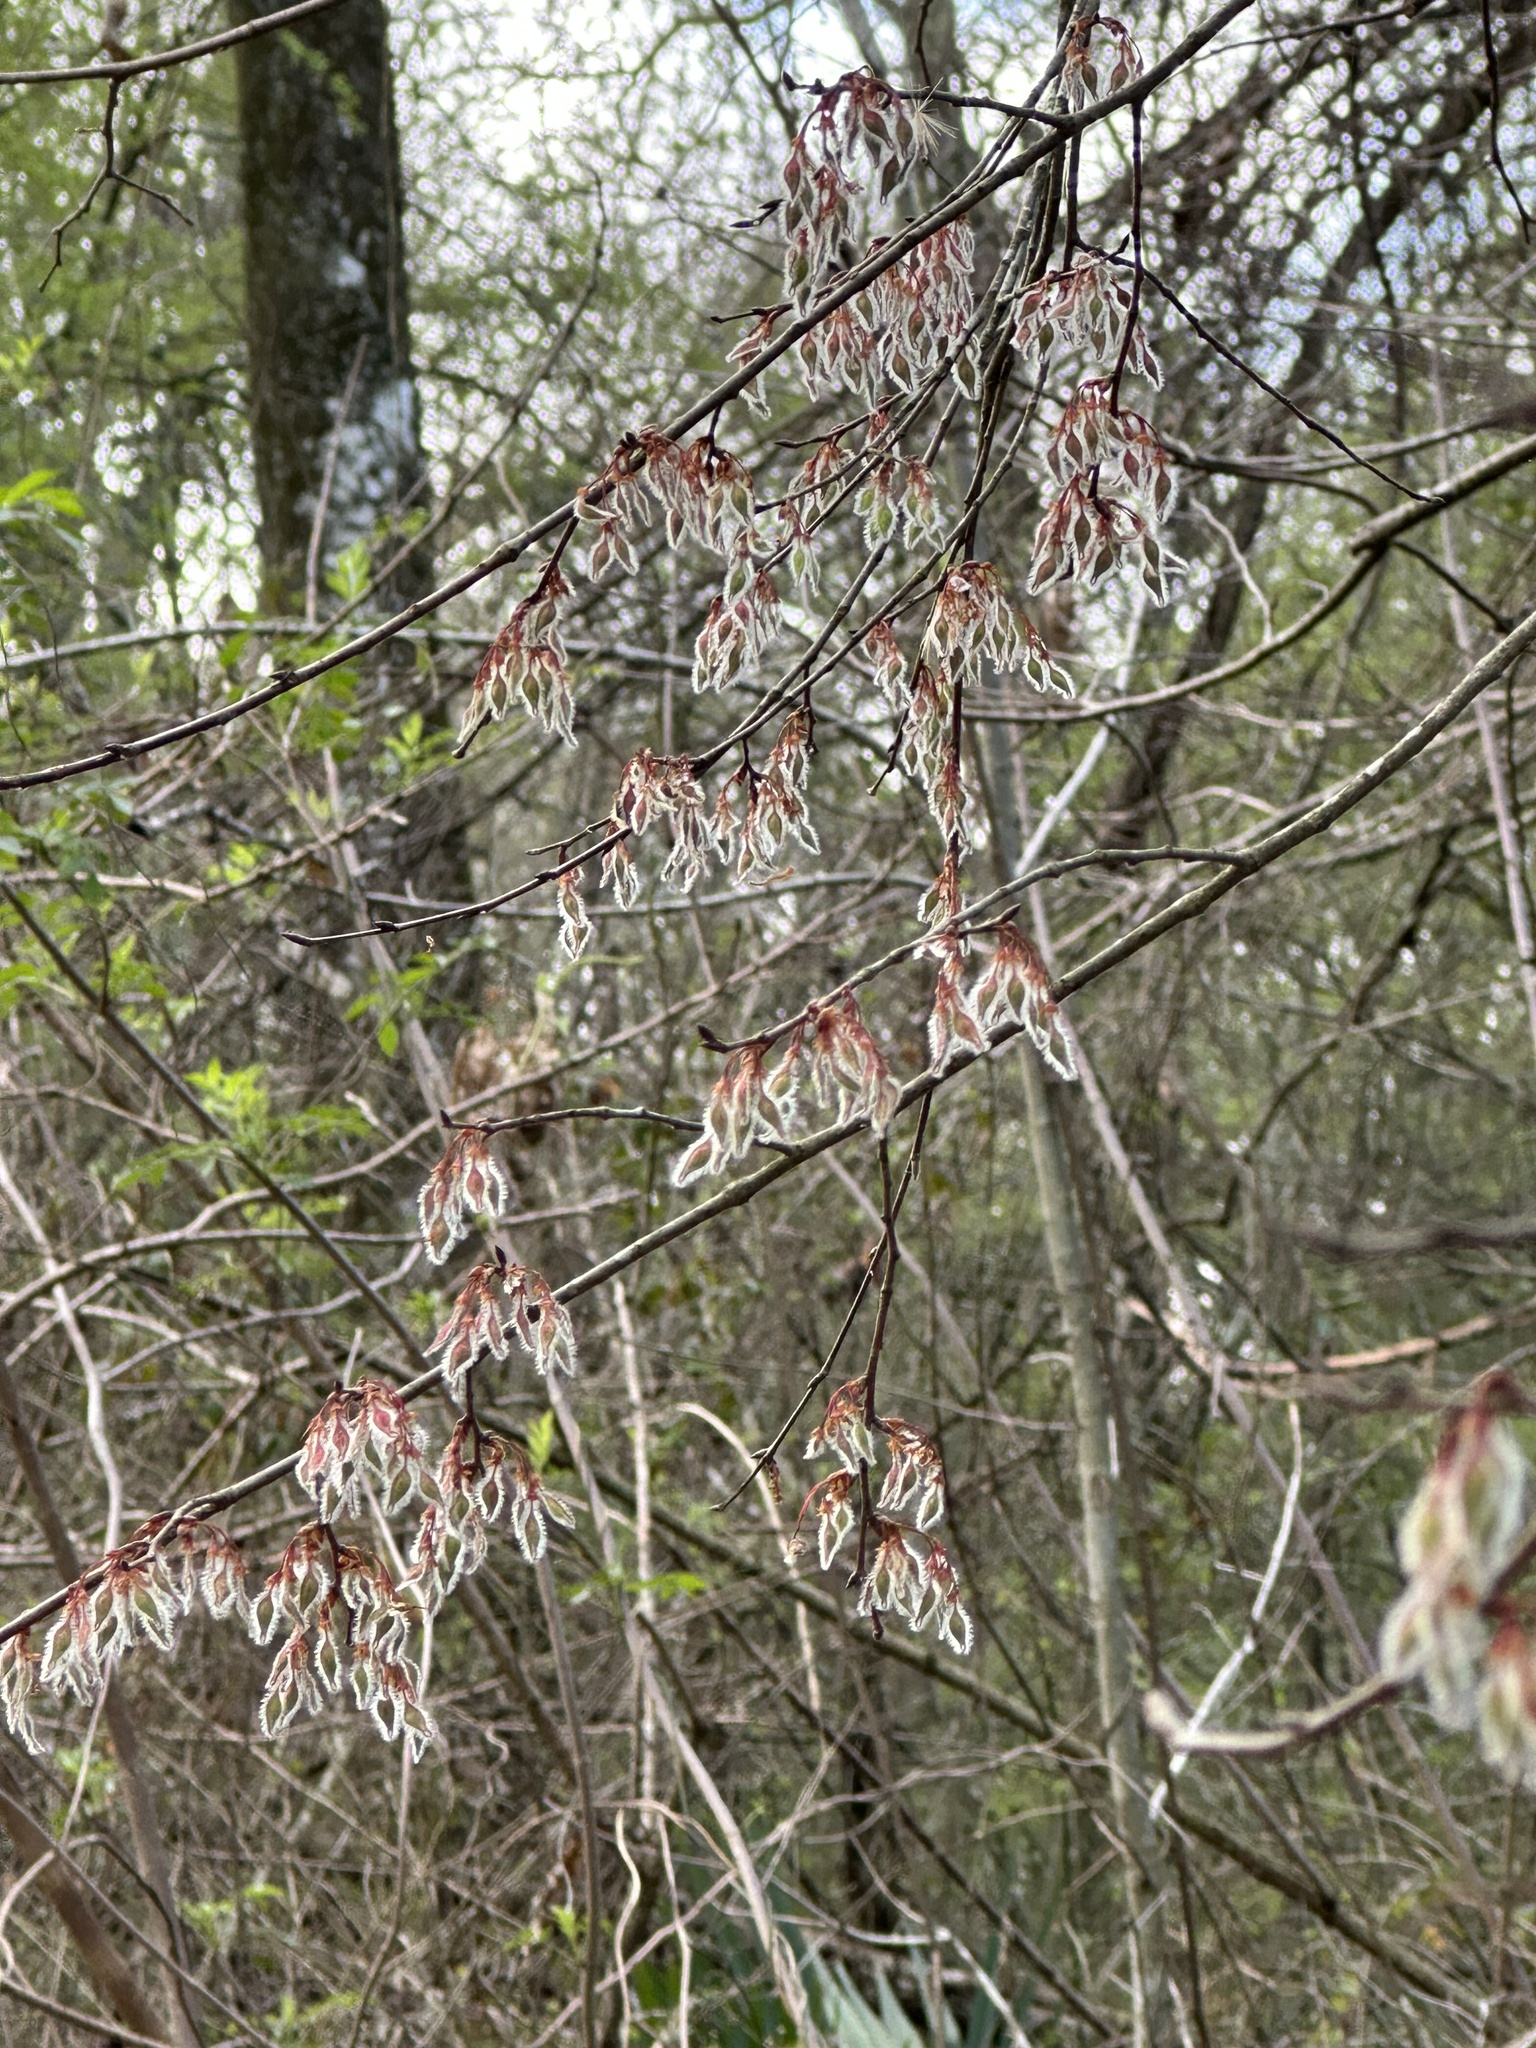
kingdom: Plantae
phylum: Tracheophyta
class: Magnoliopsida
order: Rosales
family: Ulmaceae
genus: Ulmus
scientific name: Ulmus alata
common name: Winged elm
